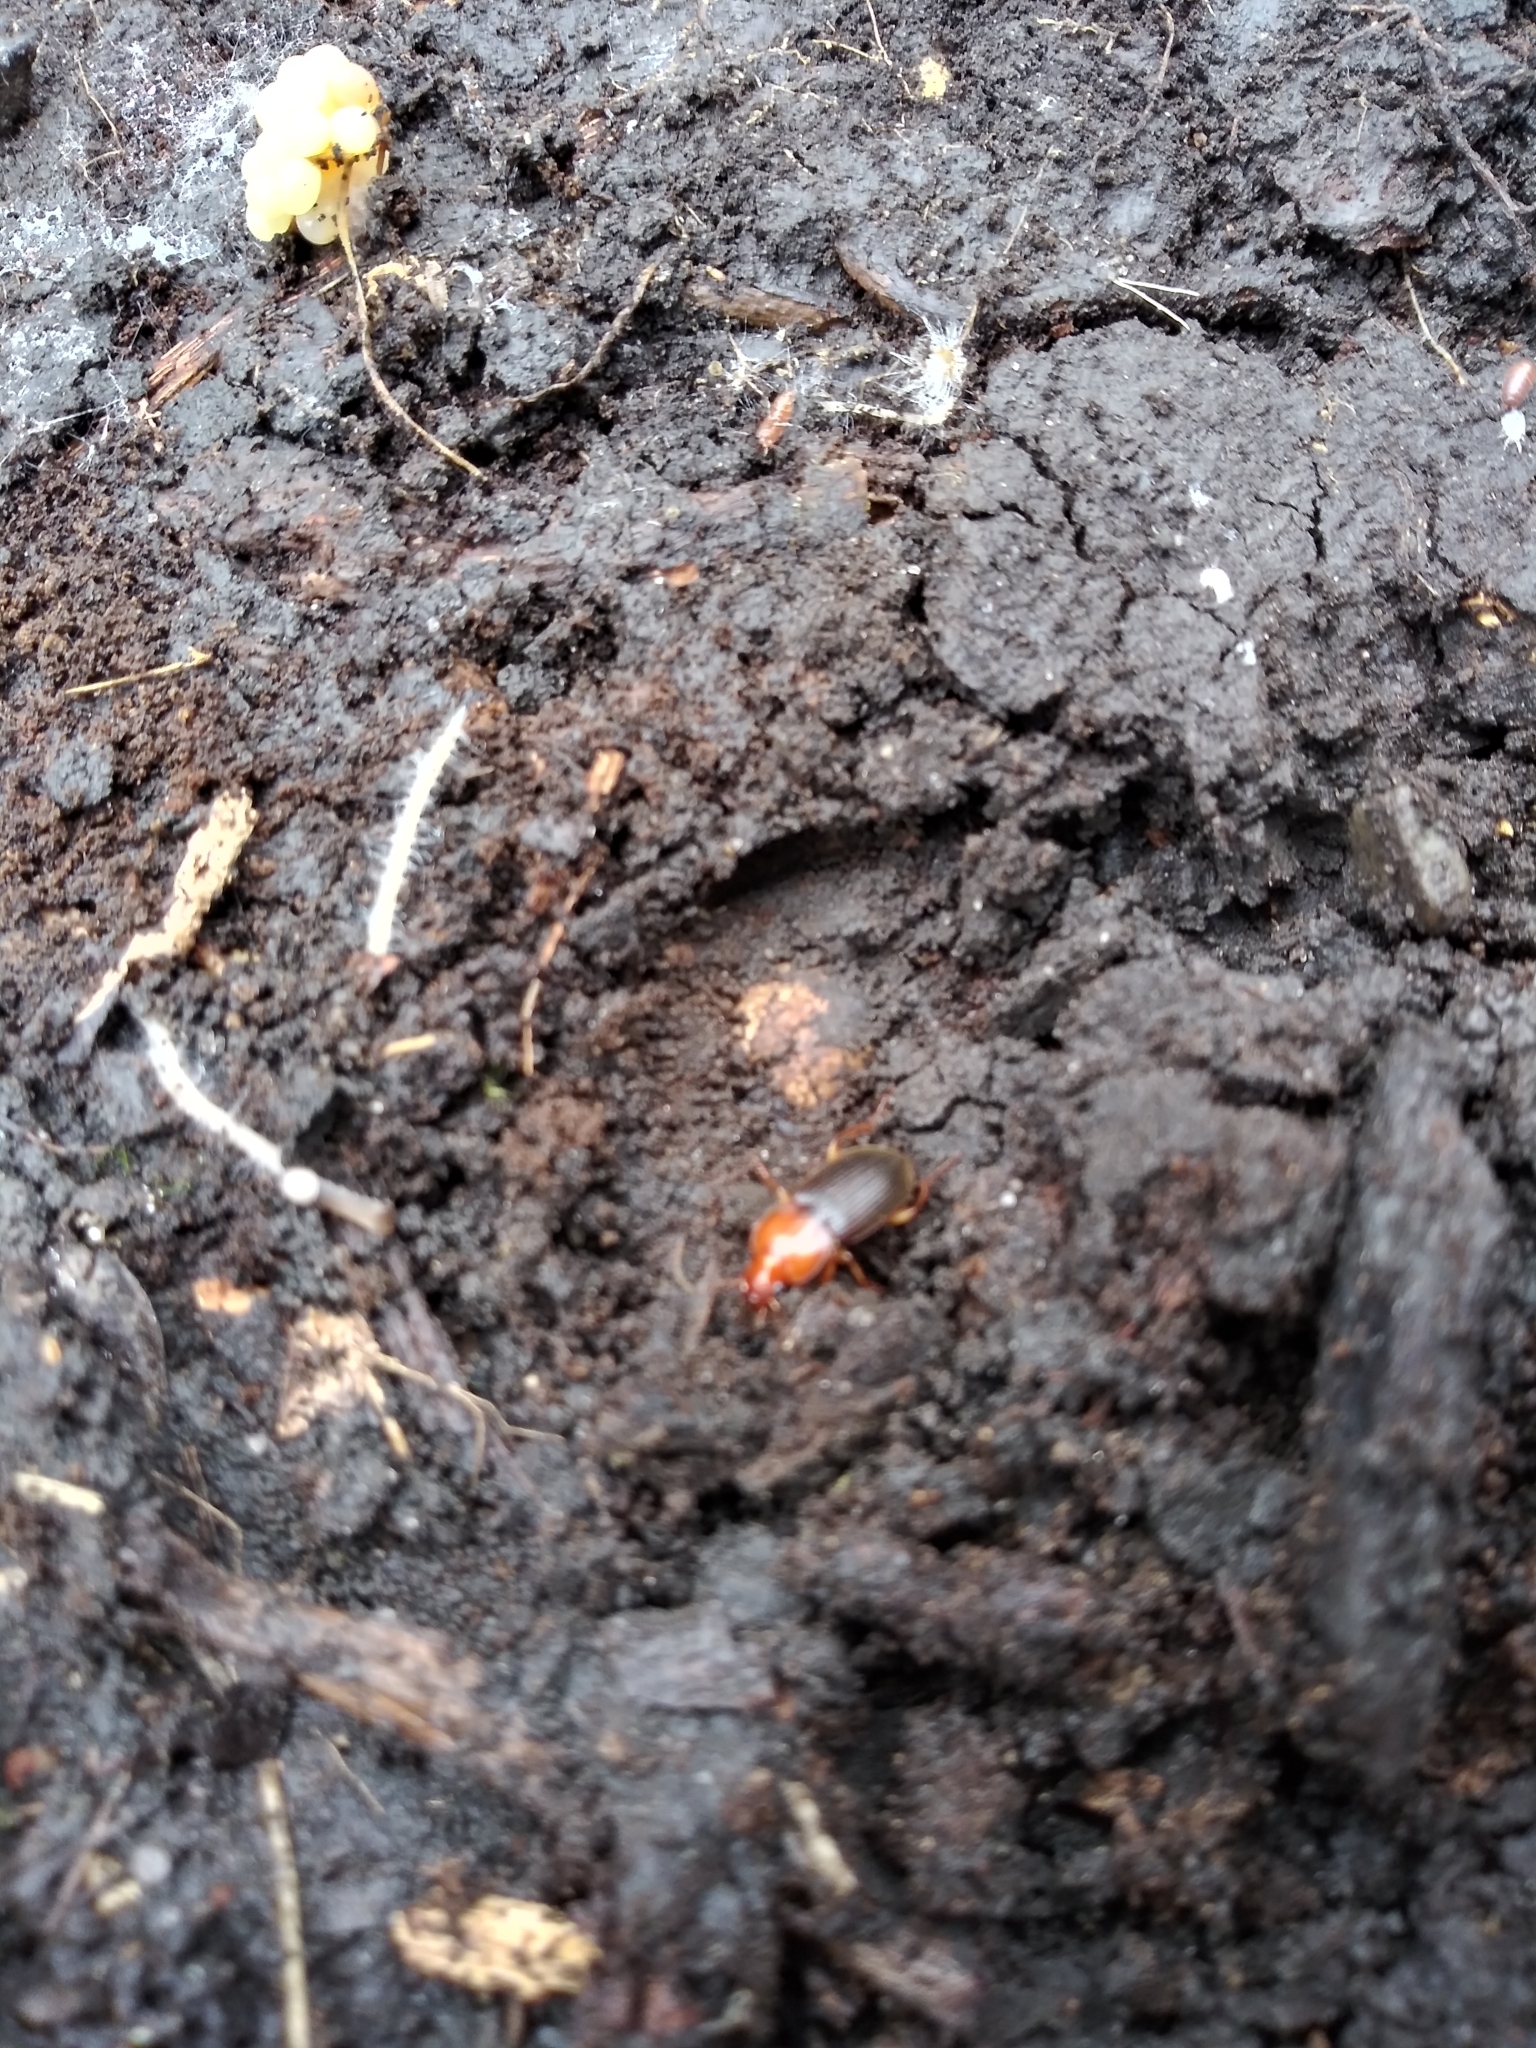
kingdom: Animalia
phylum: Arthropoda
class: Insecta
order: Coleoptera
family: Carabidae
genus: Amphasia
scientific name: Amphasia interstitialis
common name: Red-headed ground beetle
